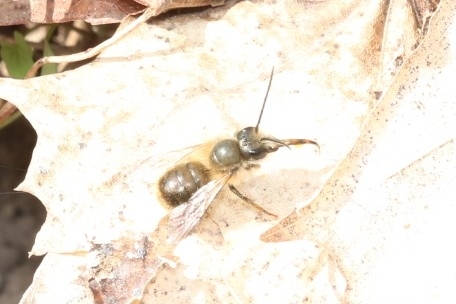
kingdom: Animalia
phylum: Arthropoda
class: Insecta
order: Hymenoptera
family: Megachilidae
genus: Osmia
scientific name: Osmia
